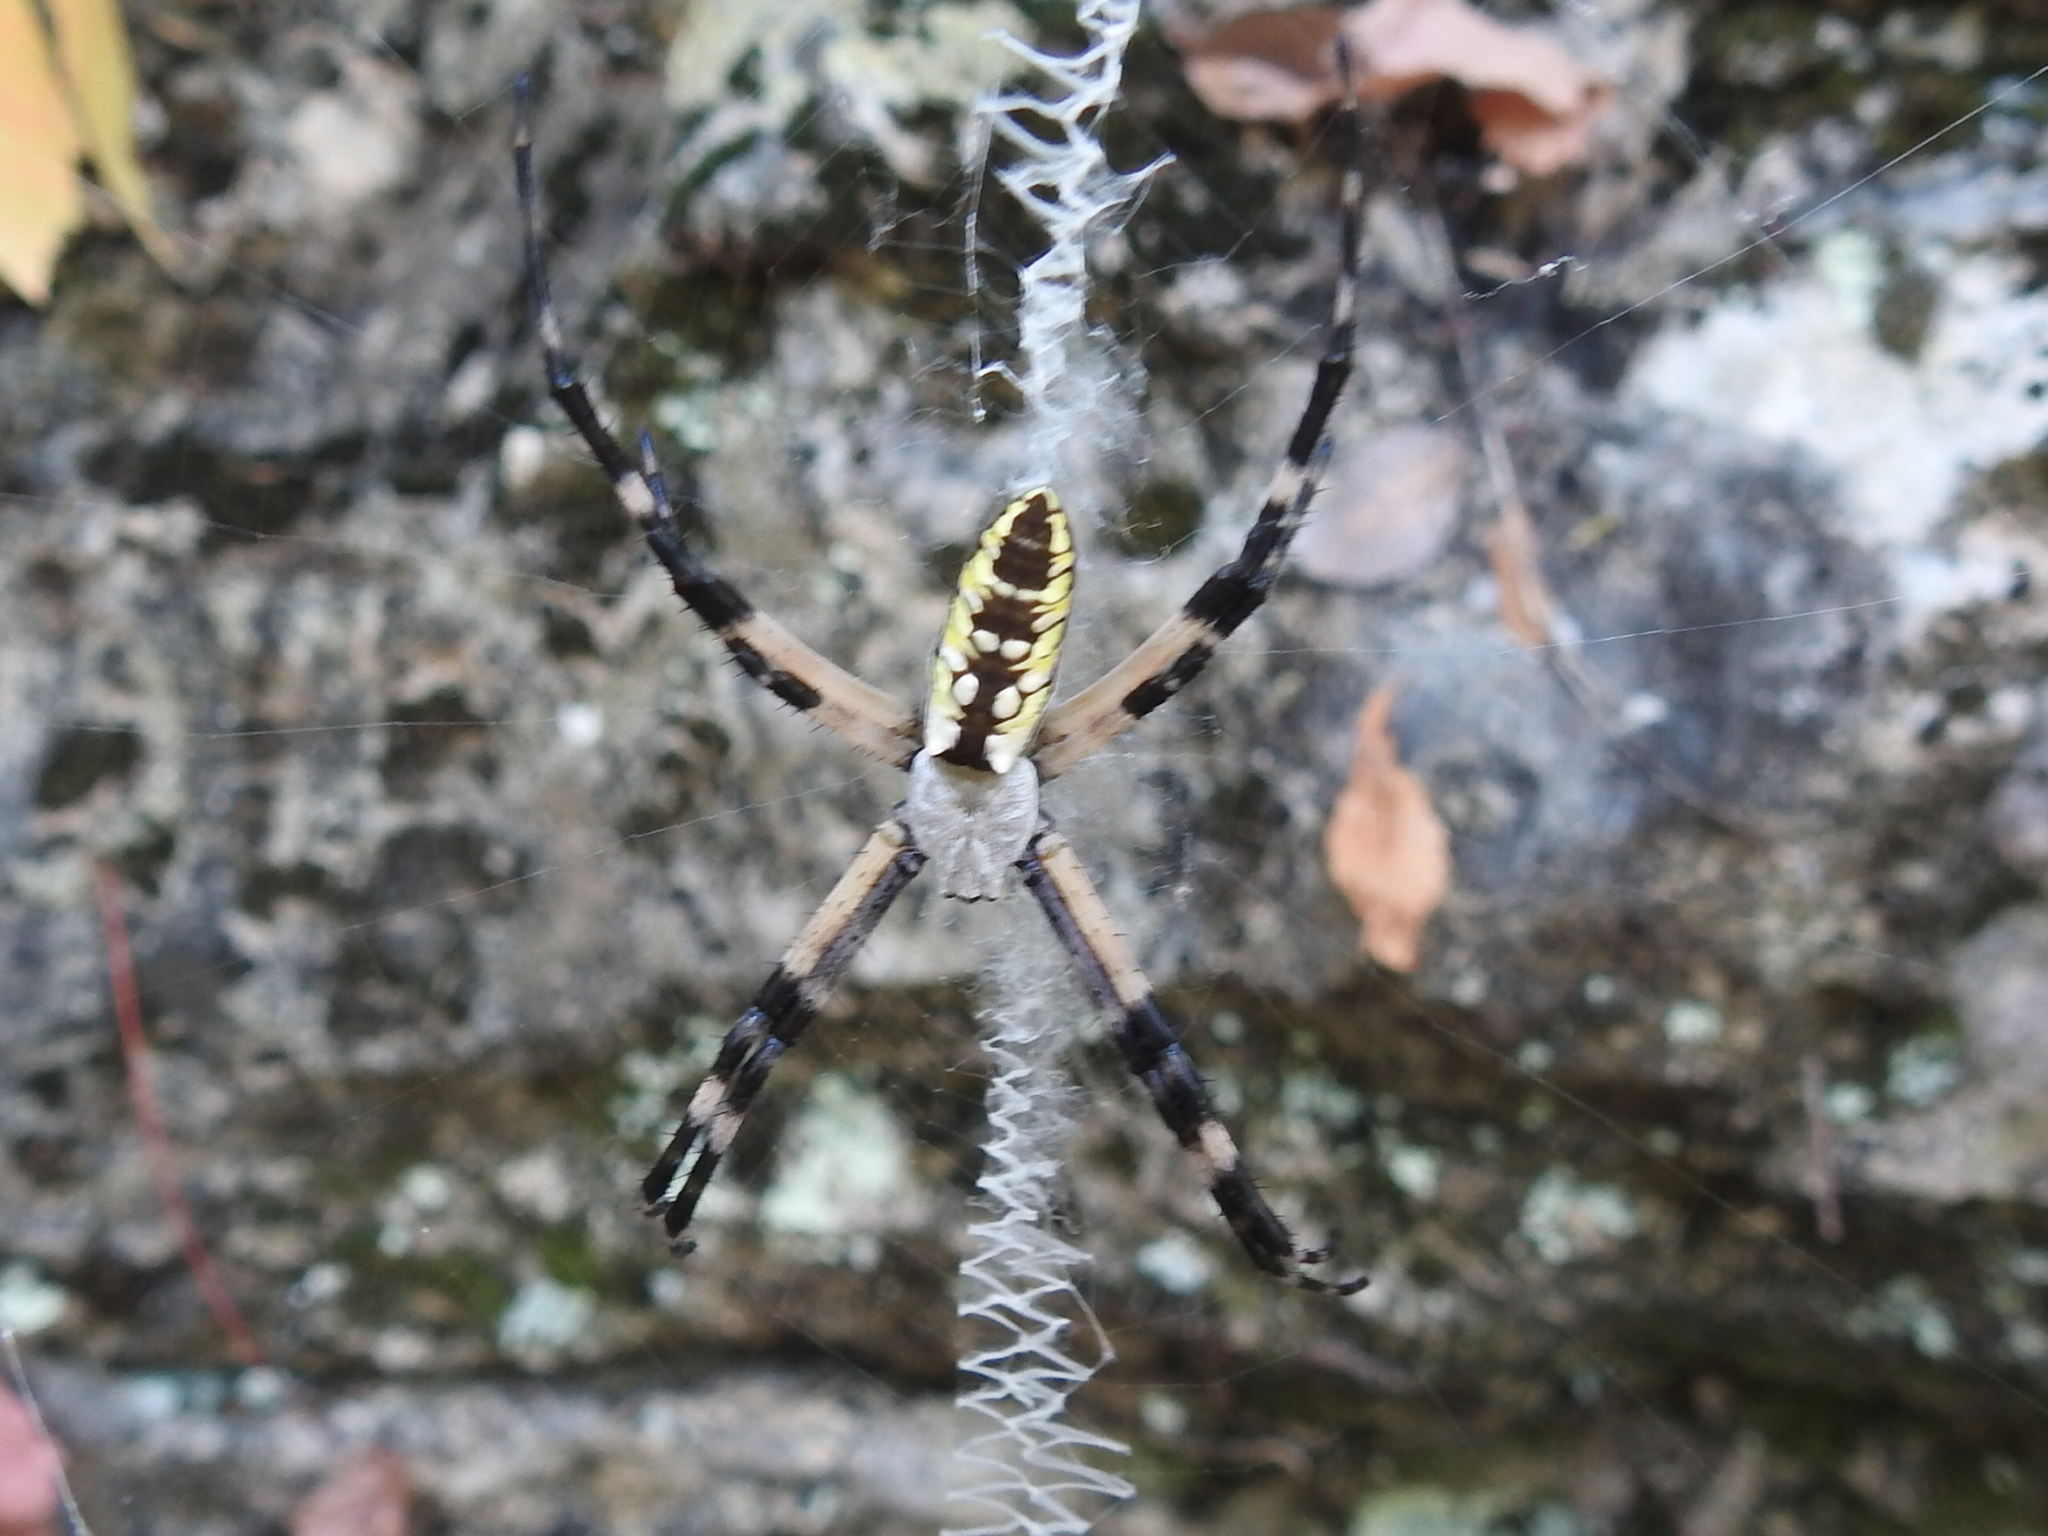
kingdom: Animalia
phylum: Arthropoda
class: Arachnida
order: Araneae
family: Araneidae
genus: Argiope
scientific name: Argiope aurantia
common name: Orb weavers
